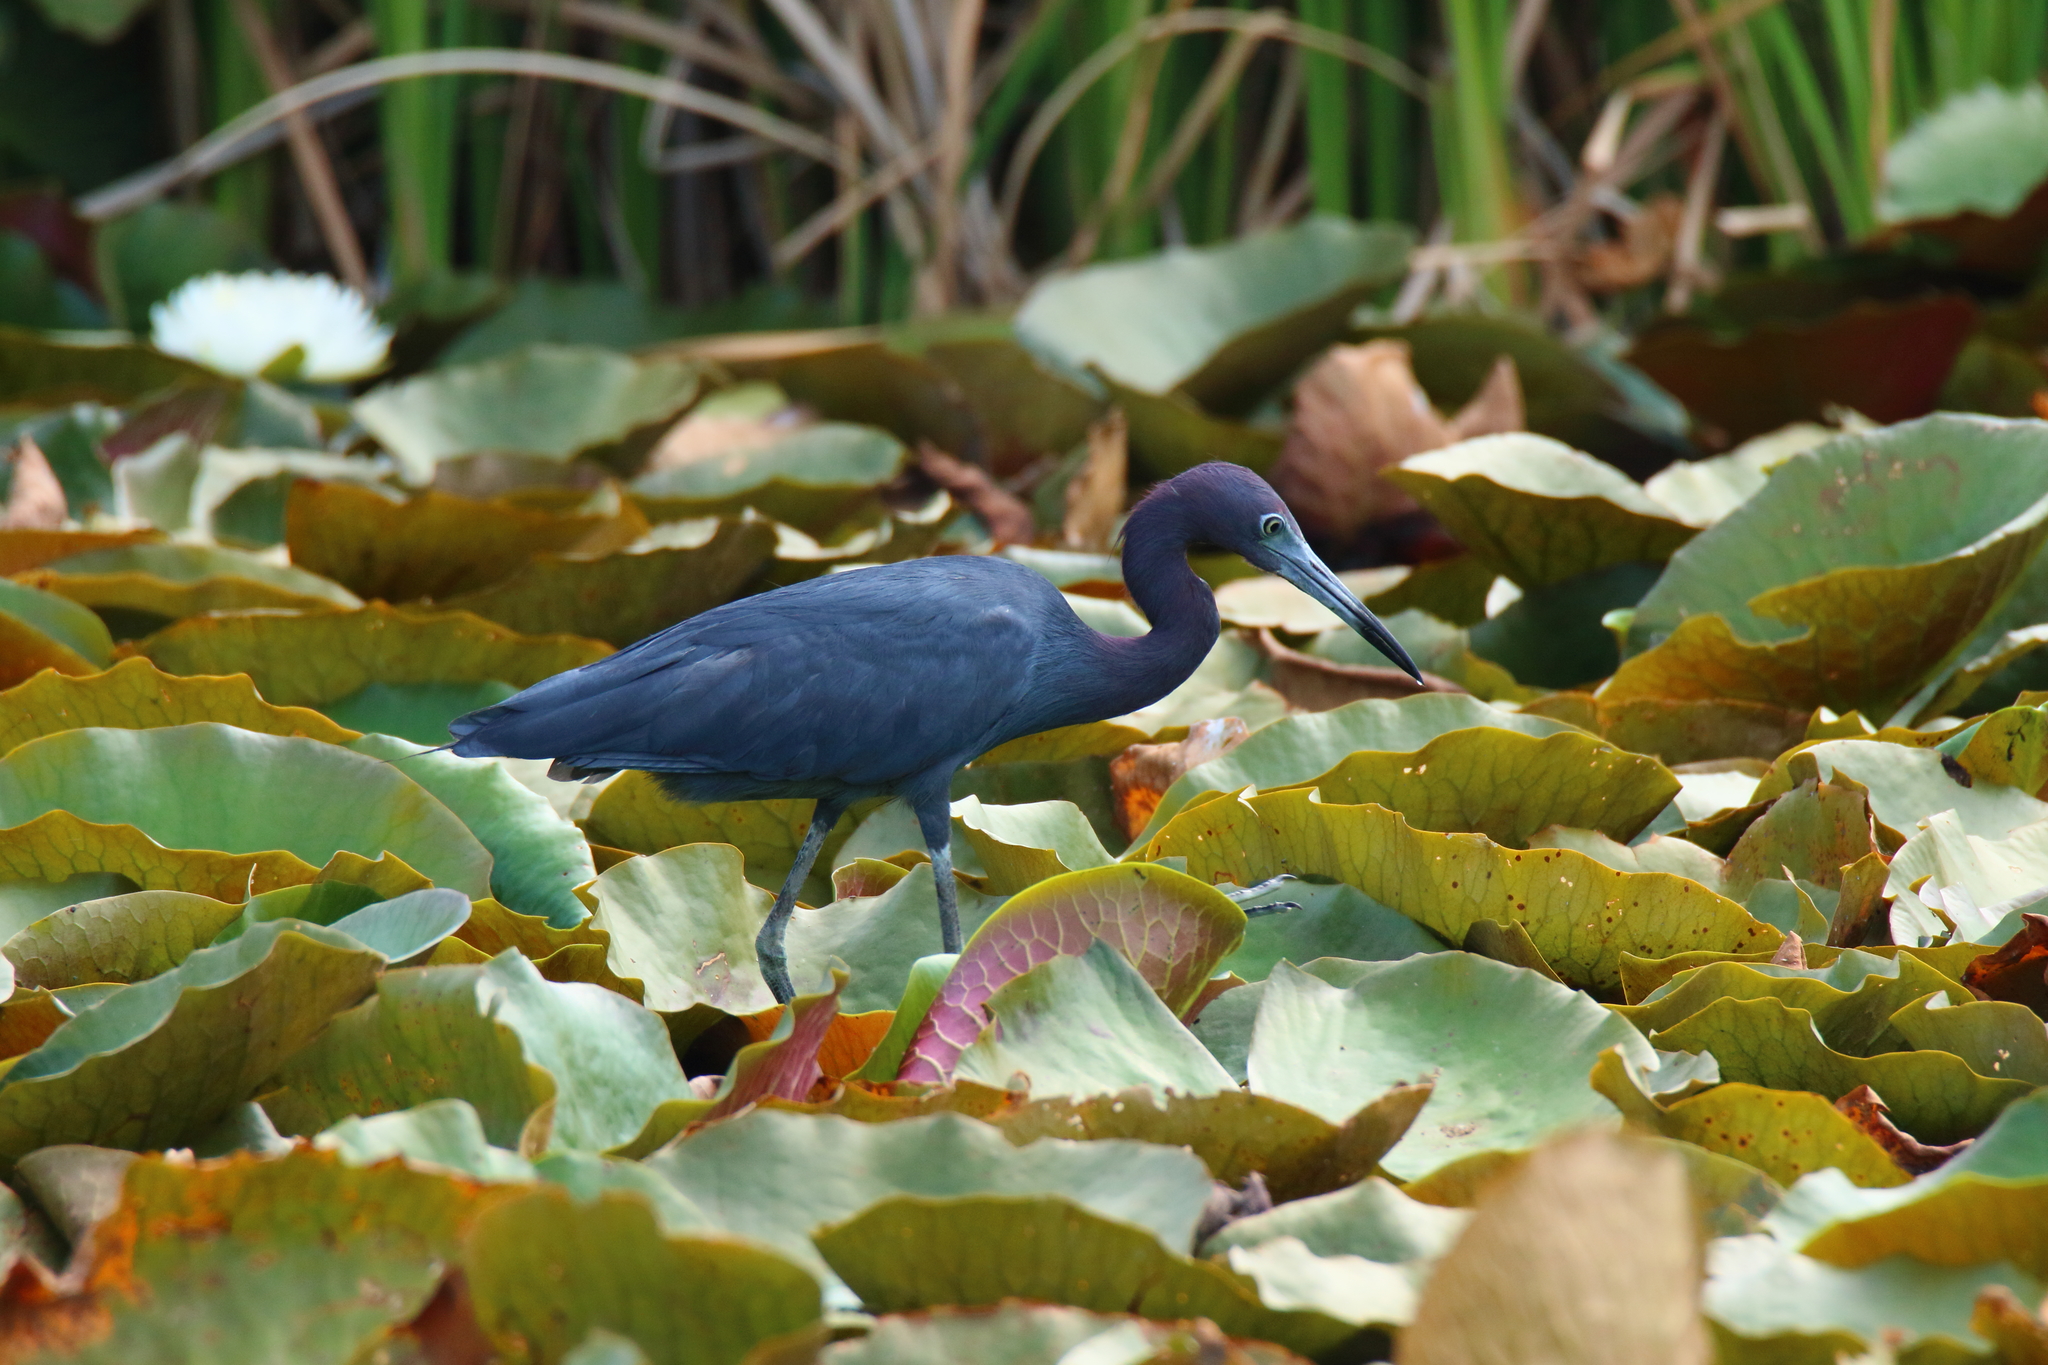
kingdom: Animalia
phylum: Chordata
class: Aves
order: Pelecaniformes
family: Ardeidae
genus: Egretta
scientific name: Egretta caerulea
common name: Little blue heron
